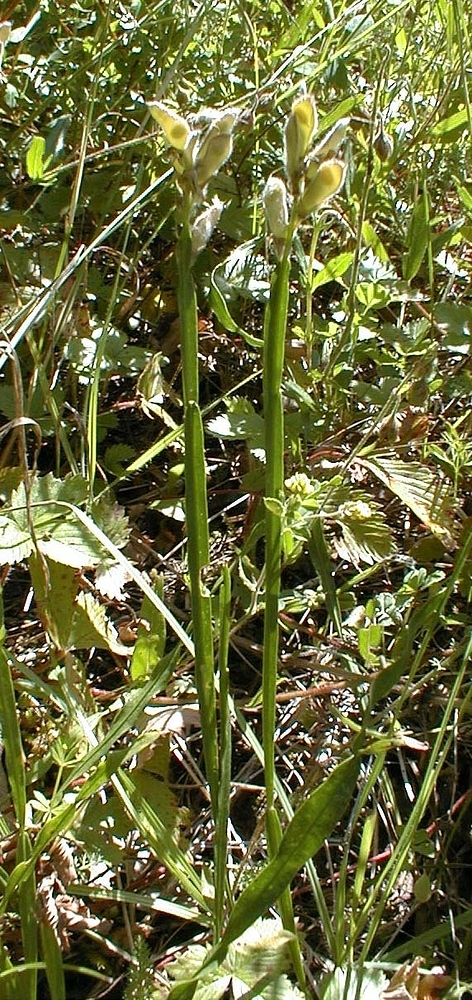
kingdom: Plantae
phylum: Tracheophyta
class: Magnoliopsida
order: Fabales
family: Fabaceae
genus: Genista
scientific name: Genista sagittalis
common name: Winged greenweed
